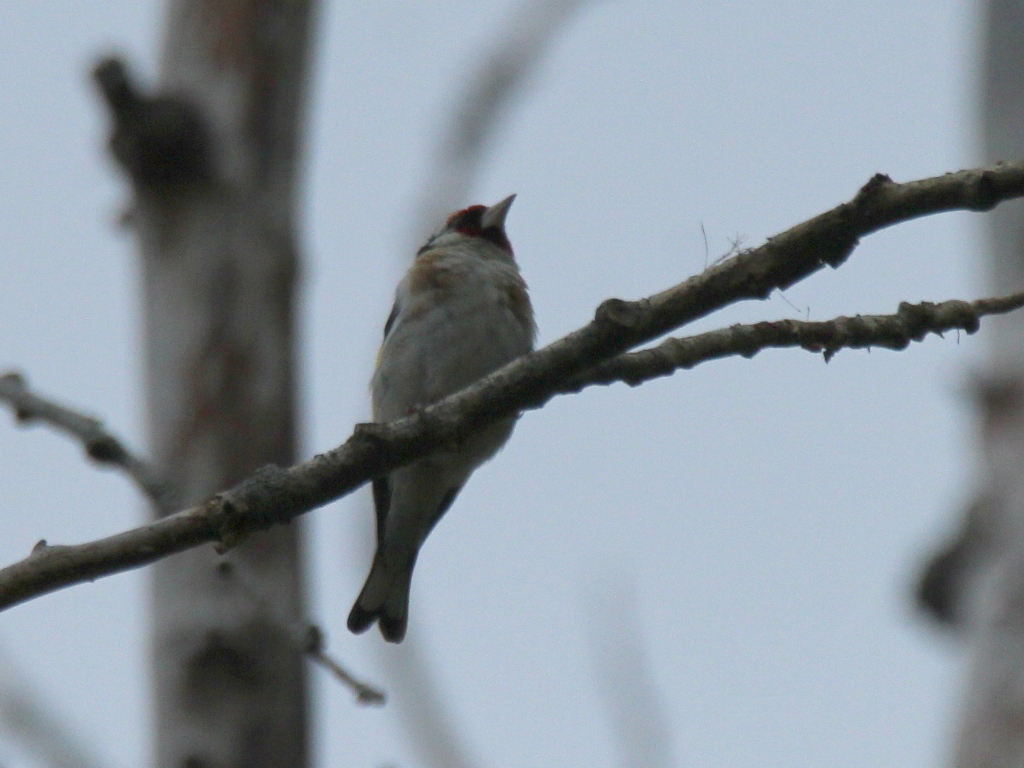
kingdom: Animalia
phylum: Chordata
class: Aves
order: Passeriformes
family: Fringillidae
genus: Carduelis
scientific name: Carduelis carduelis
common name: European goldfinch
